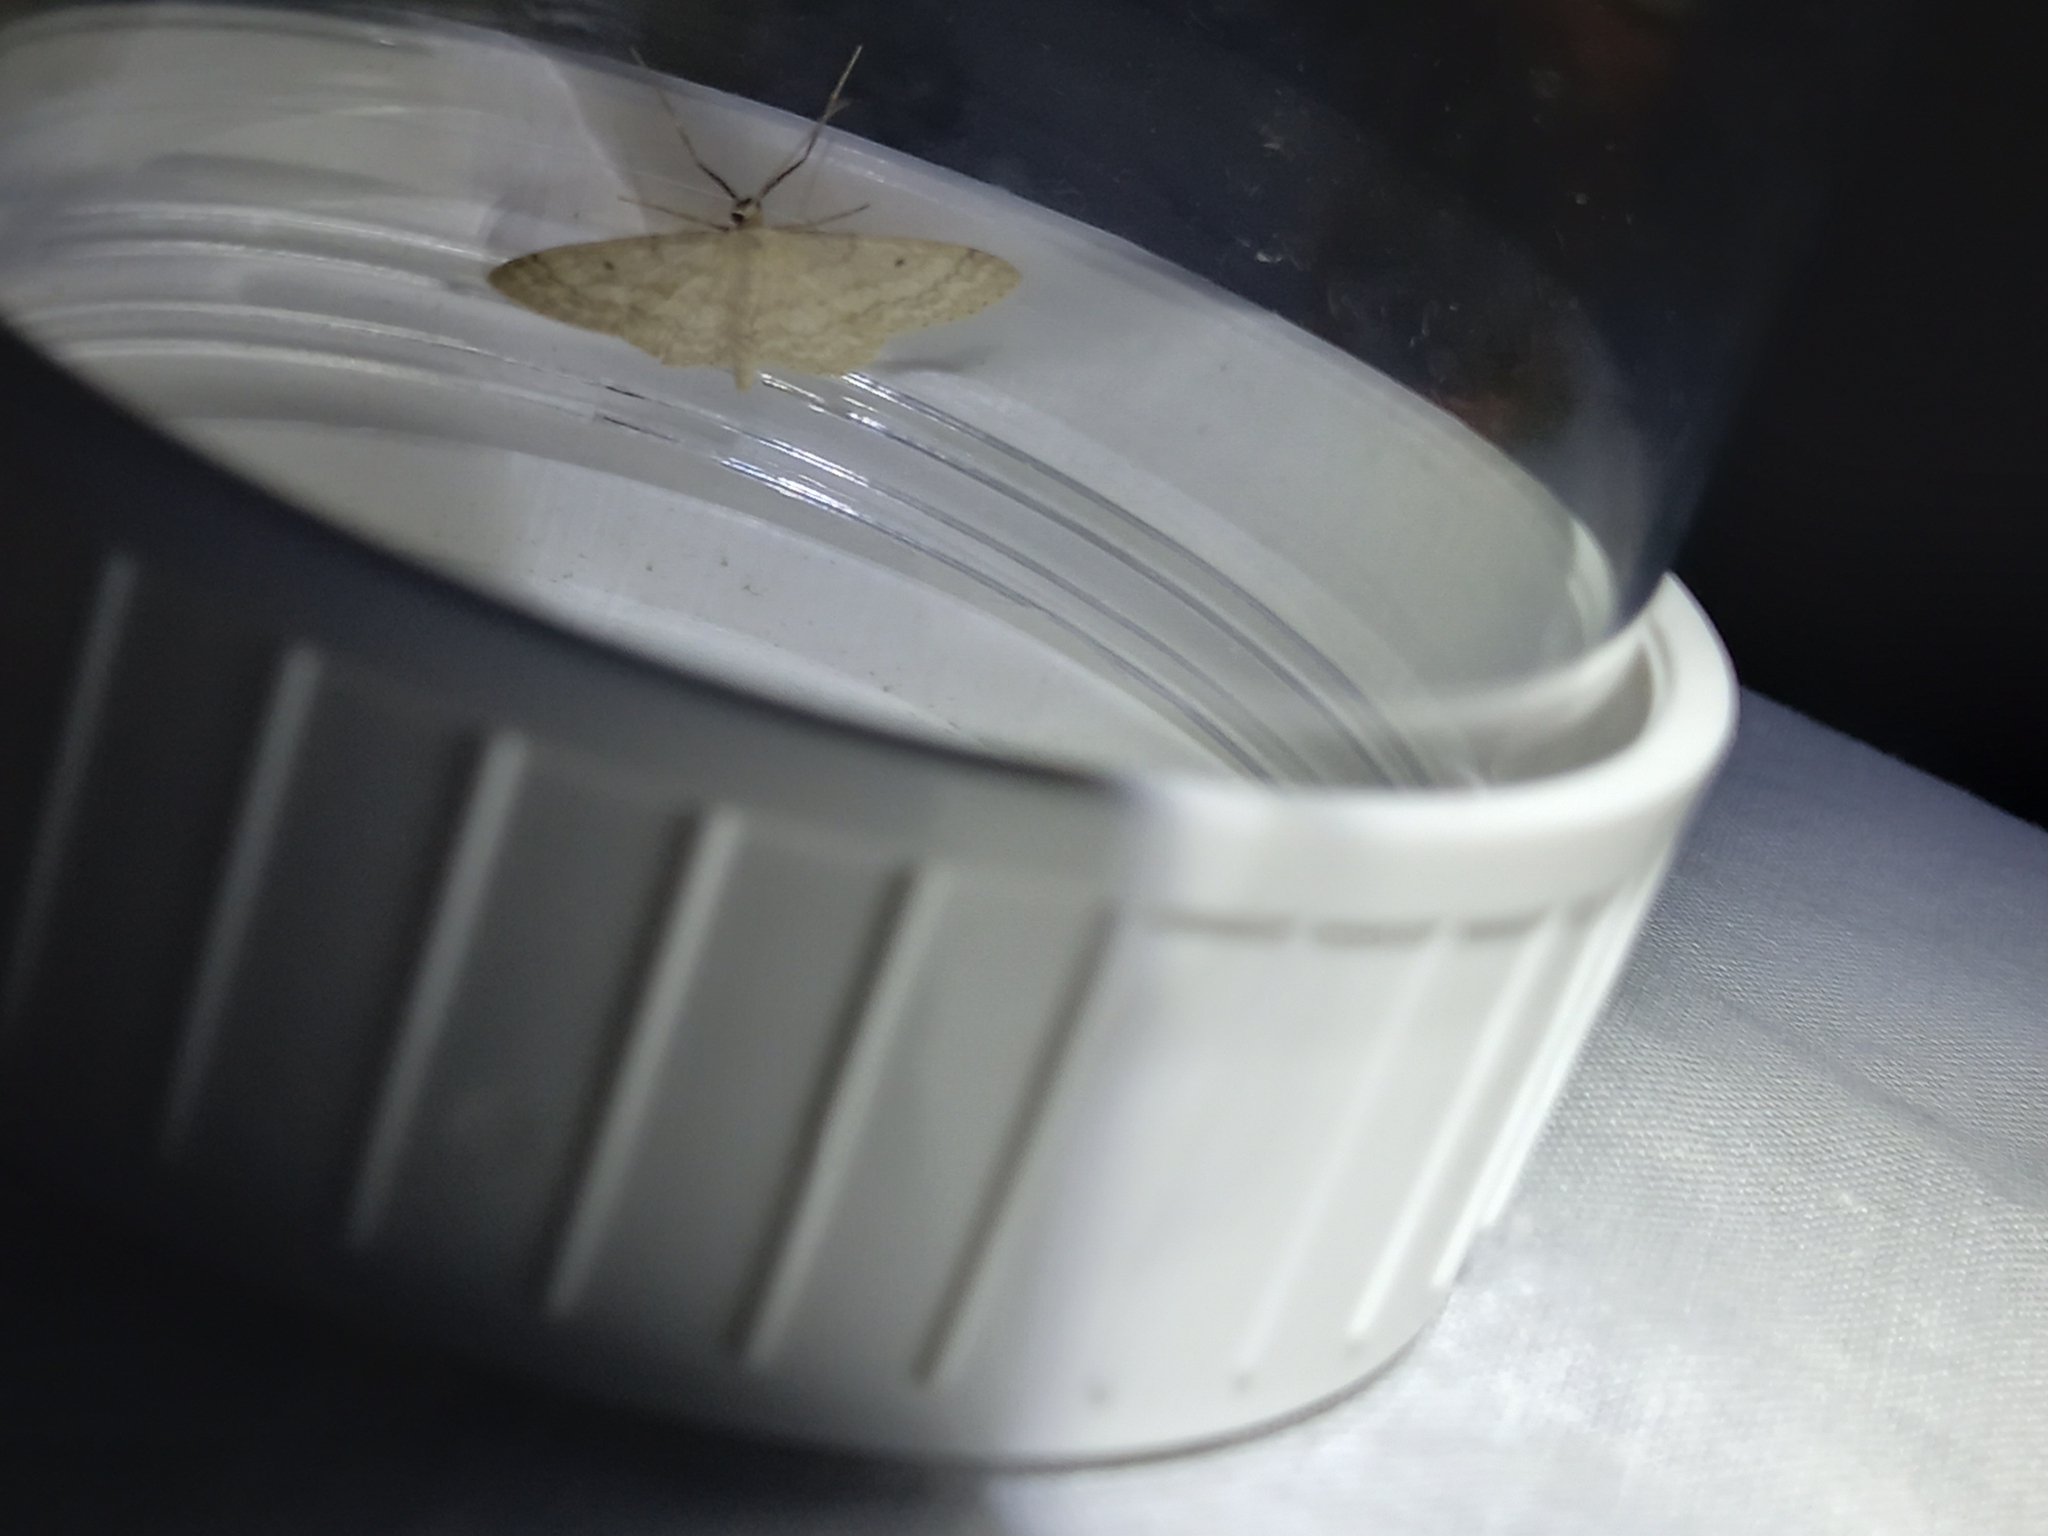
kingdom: Animalia
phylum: Arthropoda
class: Insecta
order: Lepidoptera
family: Geometridae
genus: Idaea
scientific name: Idaea biselata
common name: Small fan-footed wave
